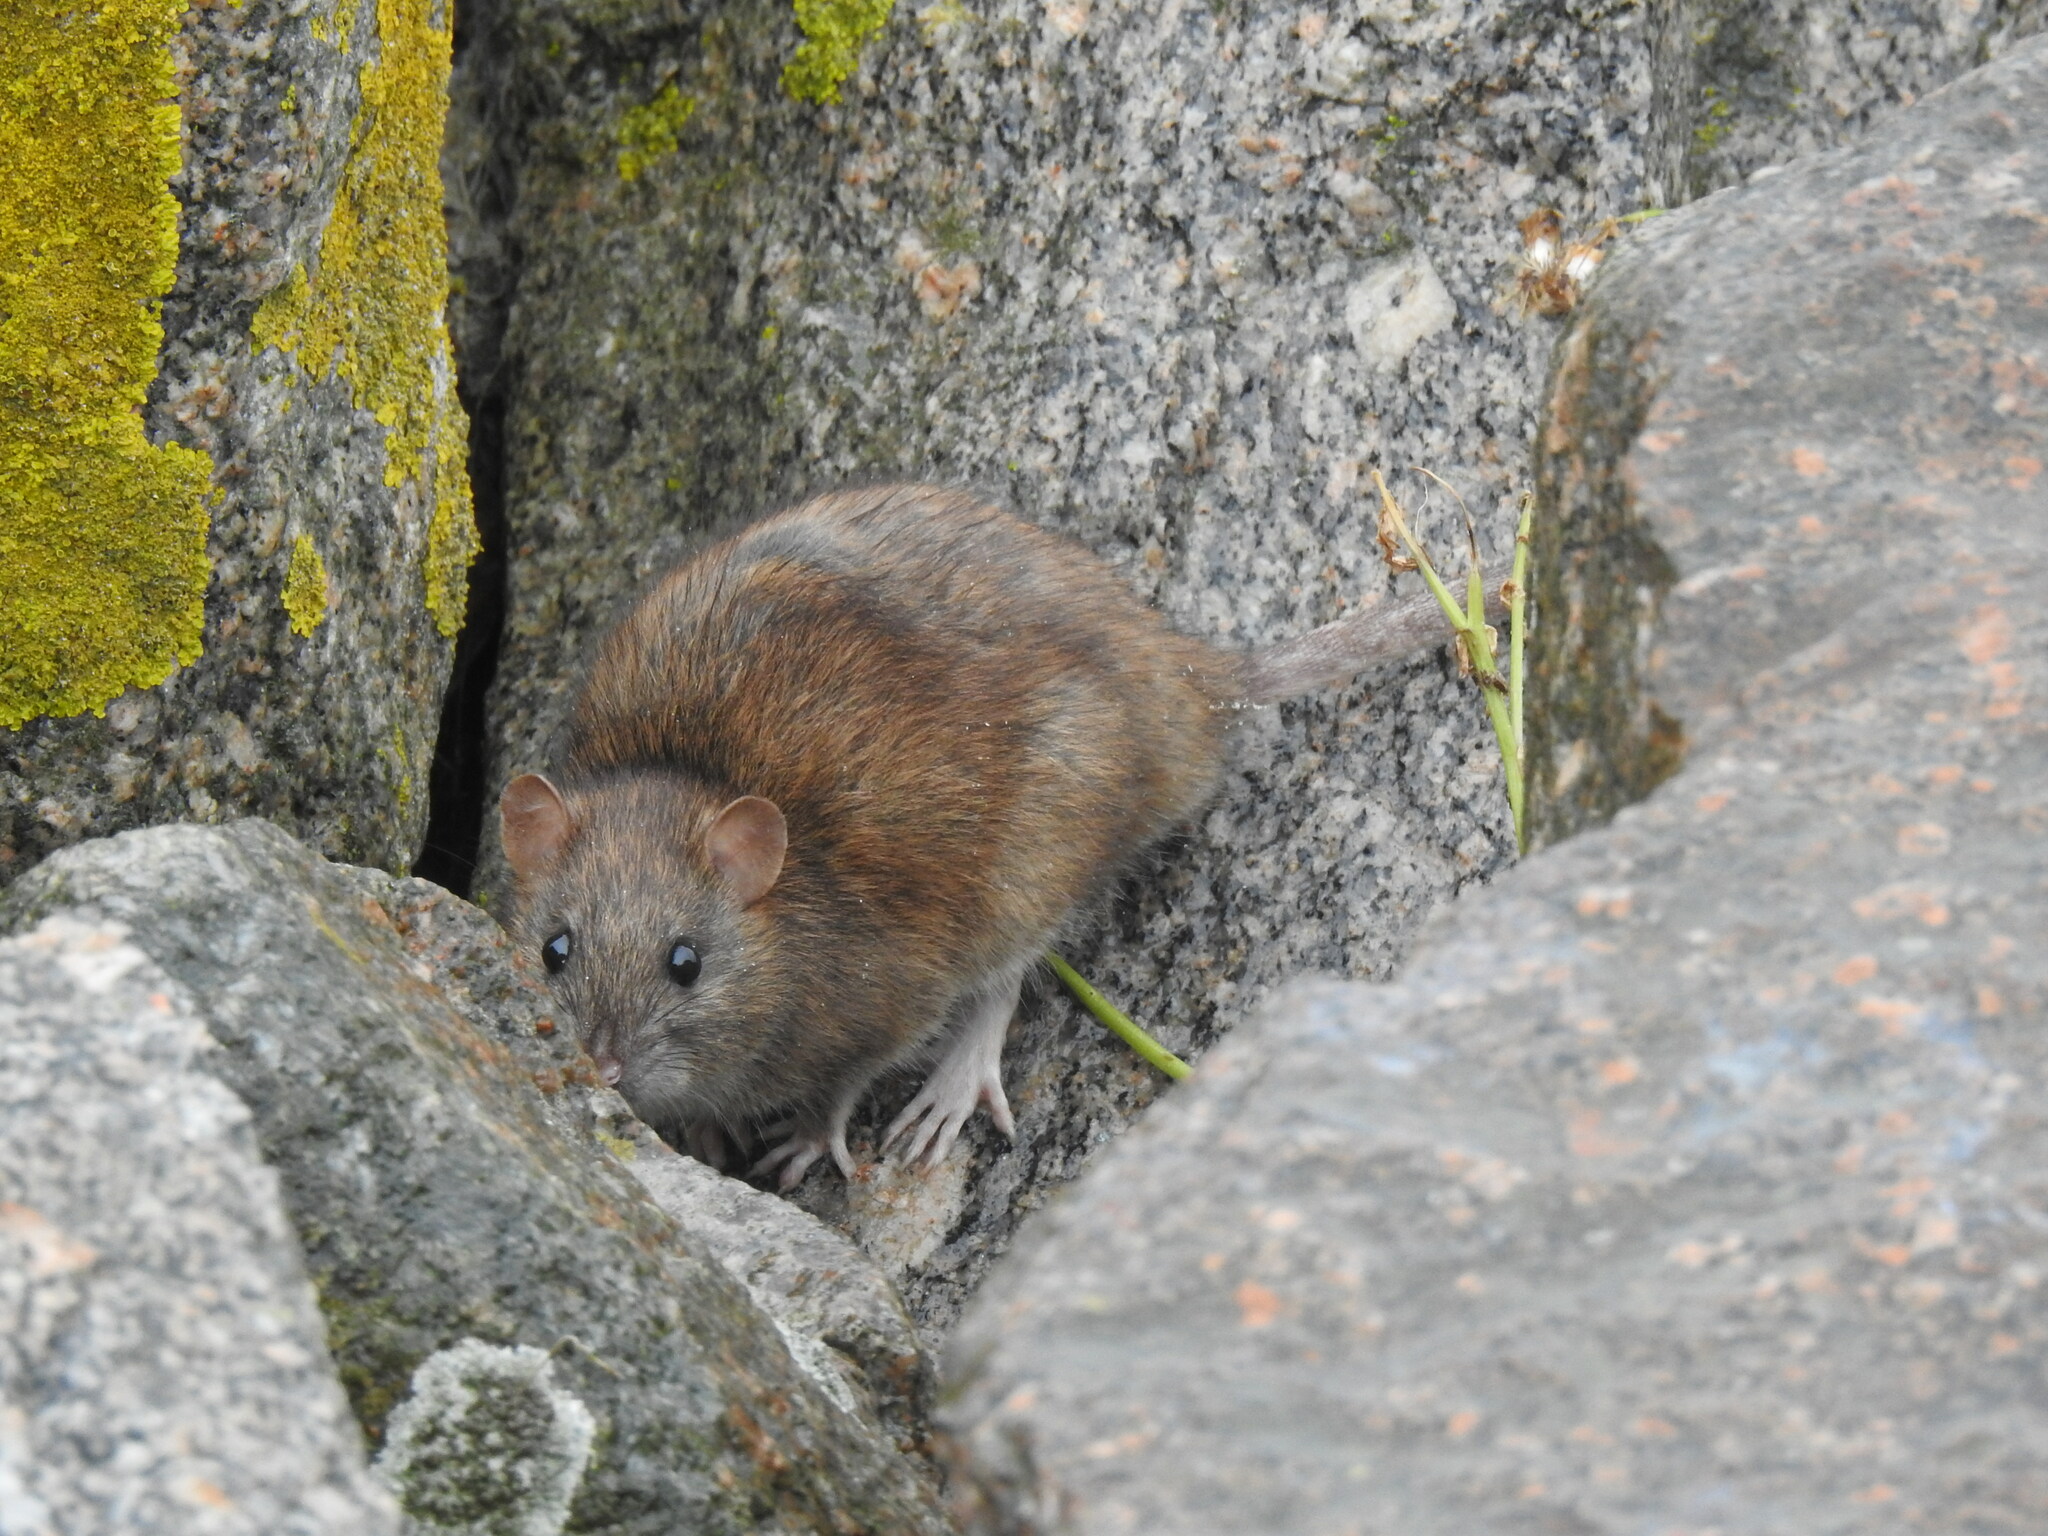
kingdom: Animalia
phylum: Chordata
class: Mammalia
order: Rodentia
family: Muridae
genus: Rattus
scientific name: Rattus norvegicus
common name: Brown rat
